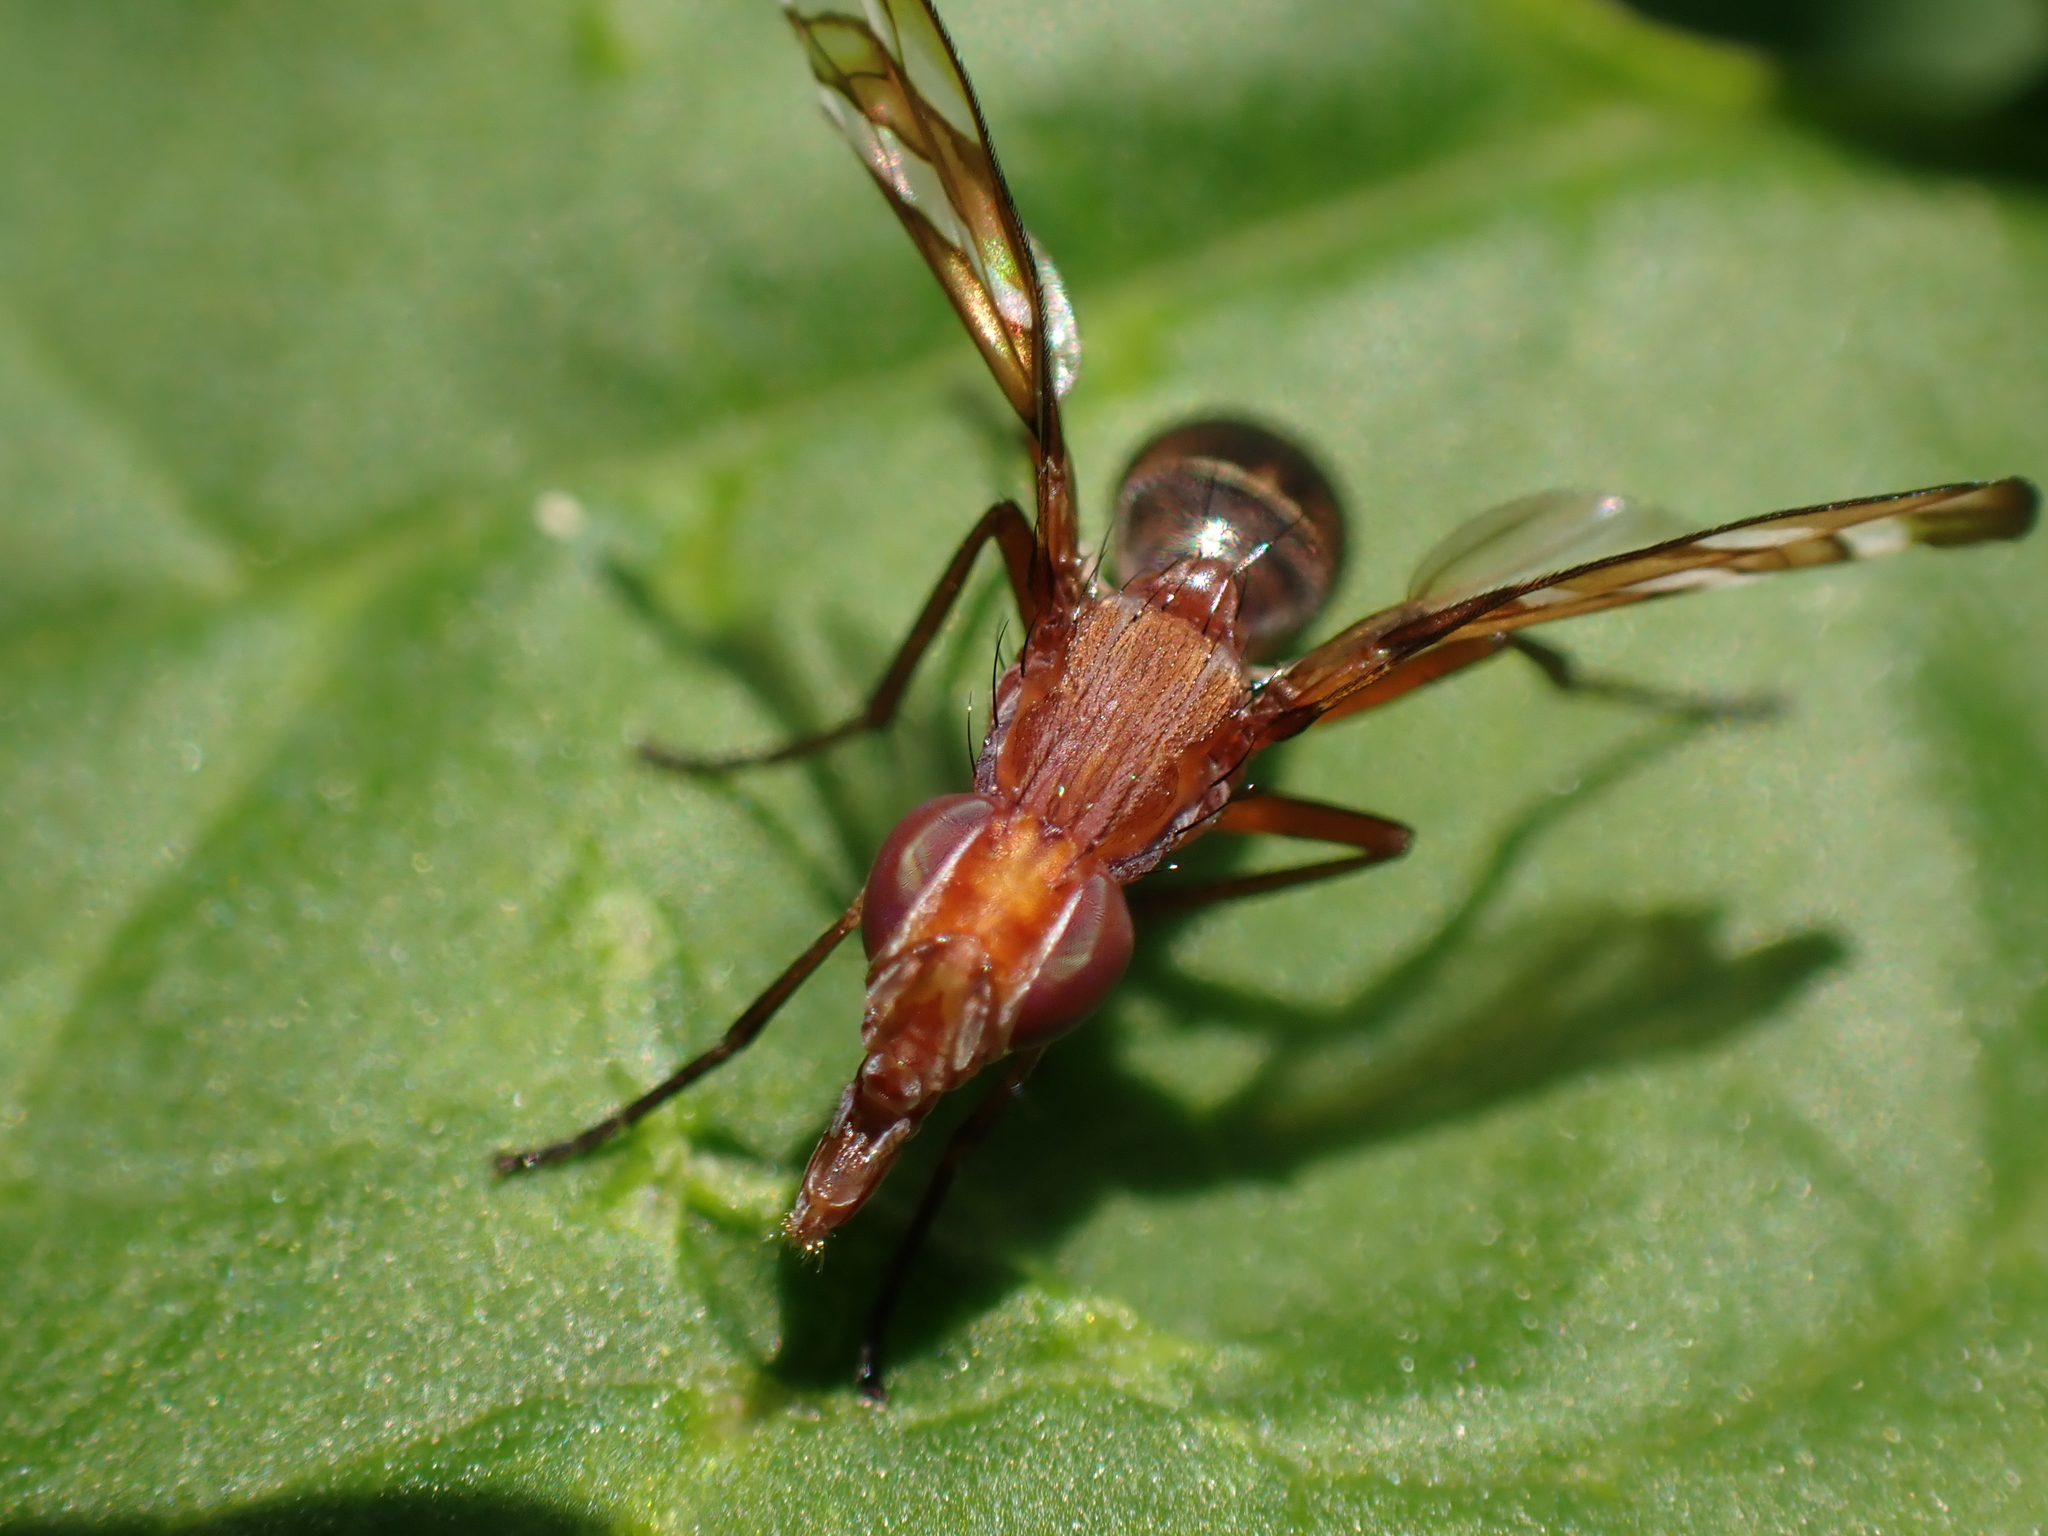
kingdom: Animalia
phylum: Arthropoda
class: Insecta
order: Diptera
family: Ulidiidae
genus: Tritoxa
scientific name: Tritoxa incurva
